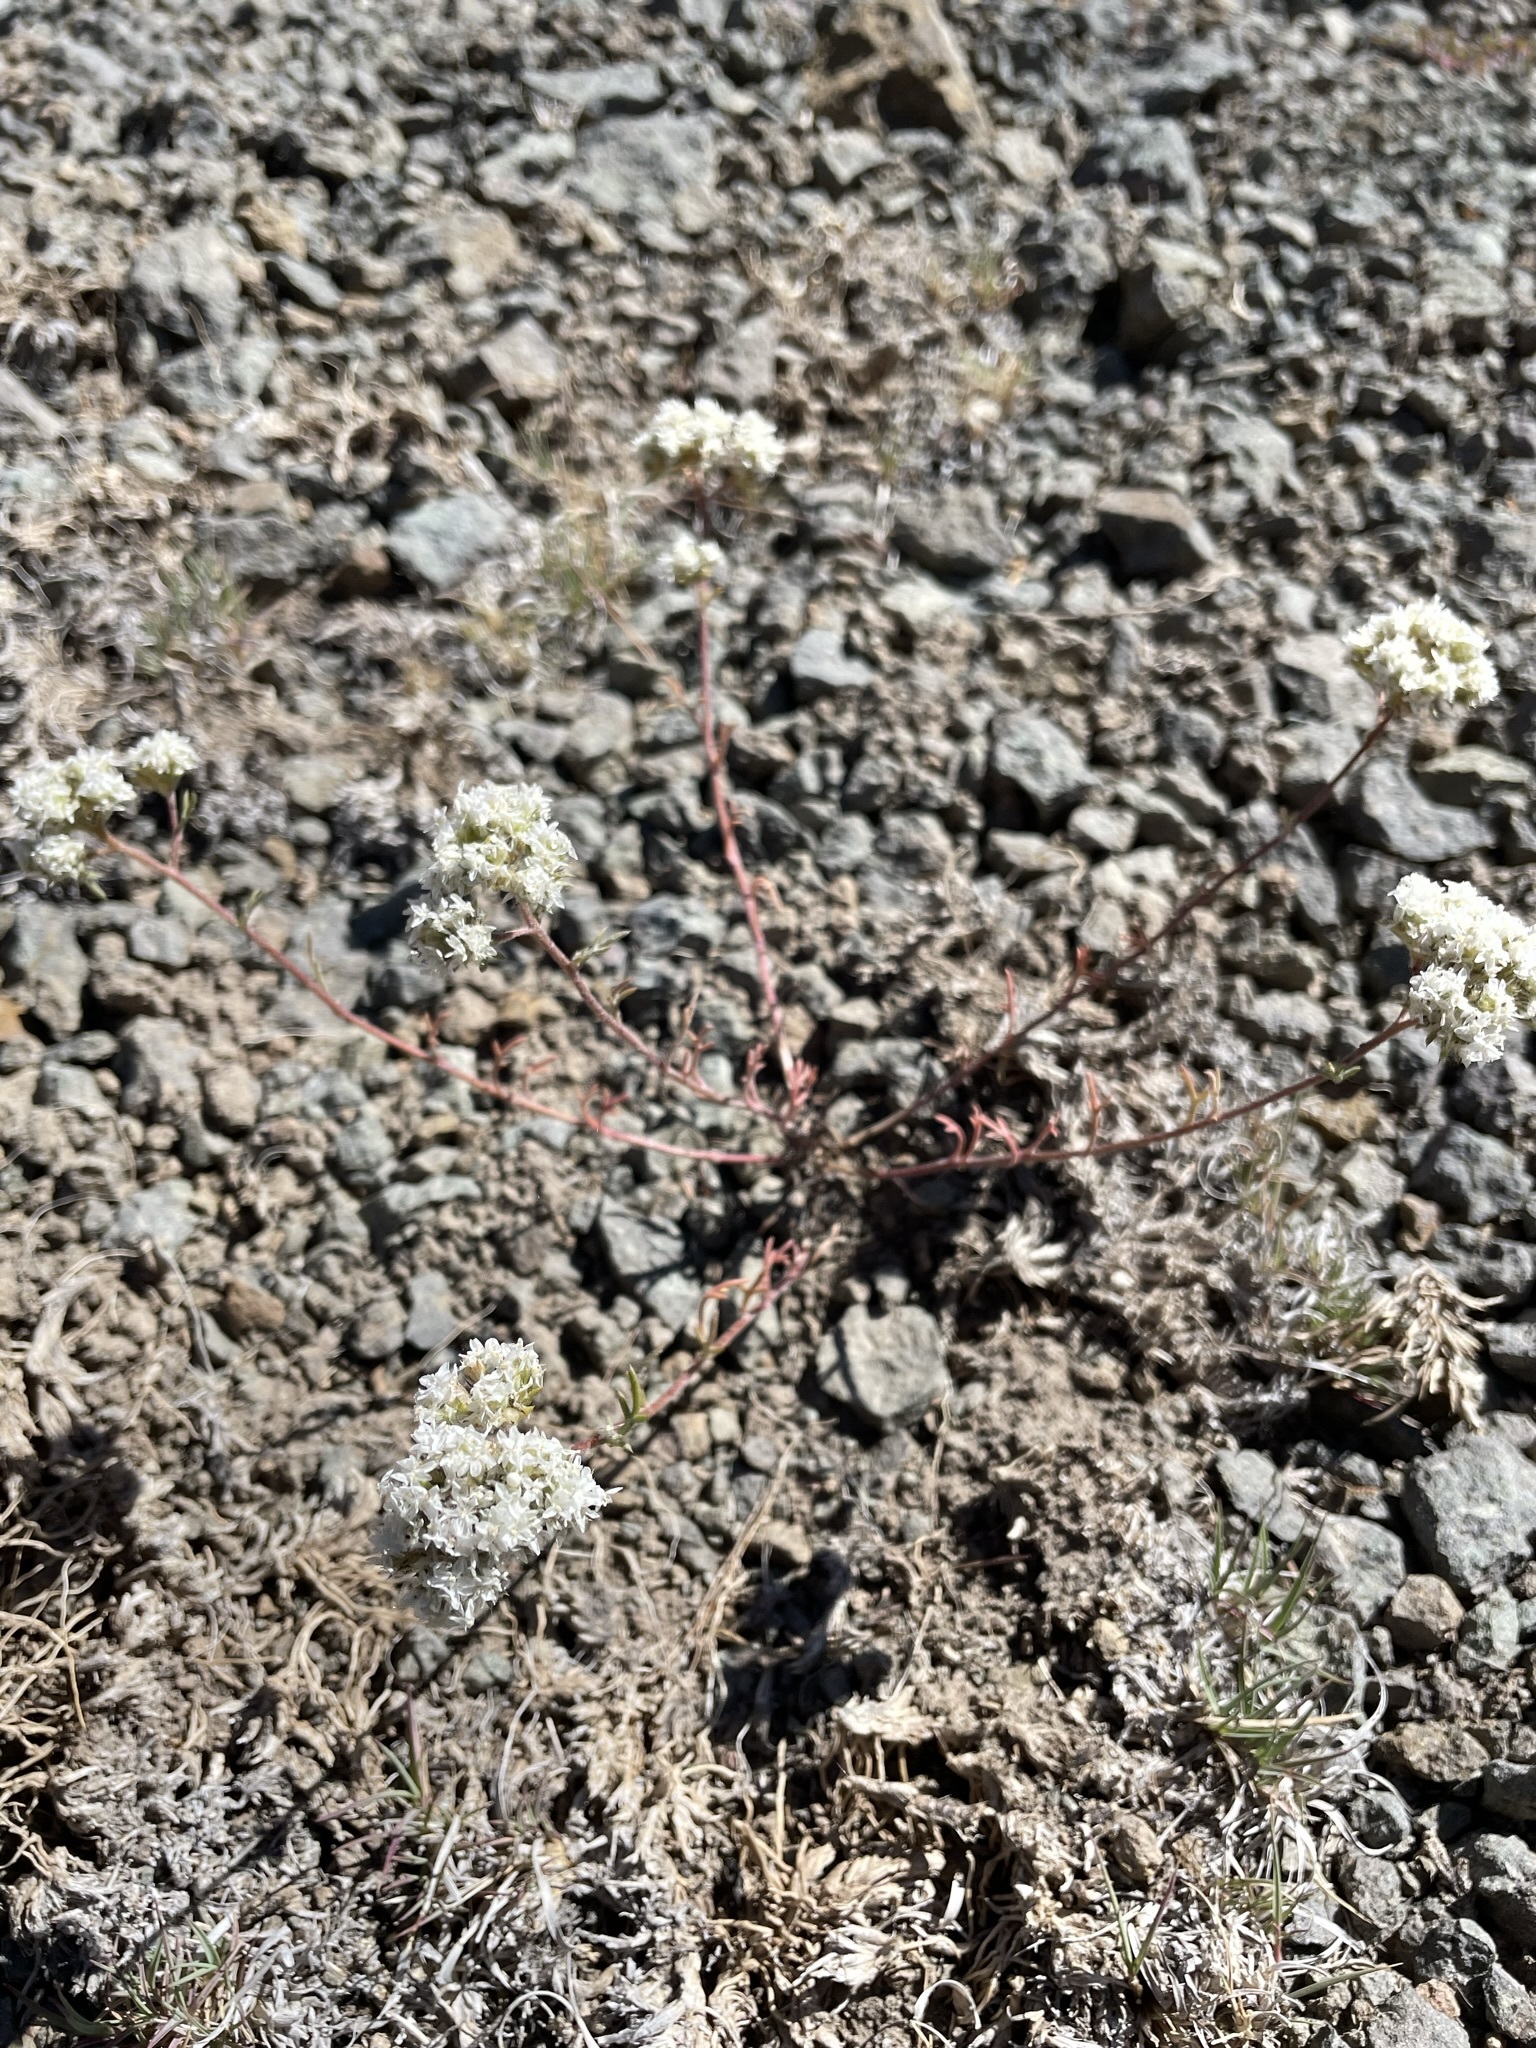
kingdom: Plantae
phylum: Tracheophyta
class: Magnoliopsida
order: Ericales
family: Polemoniaceae
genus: Ipomopsis
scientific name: Ipomopsis congesta
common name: Ball-head gilia
